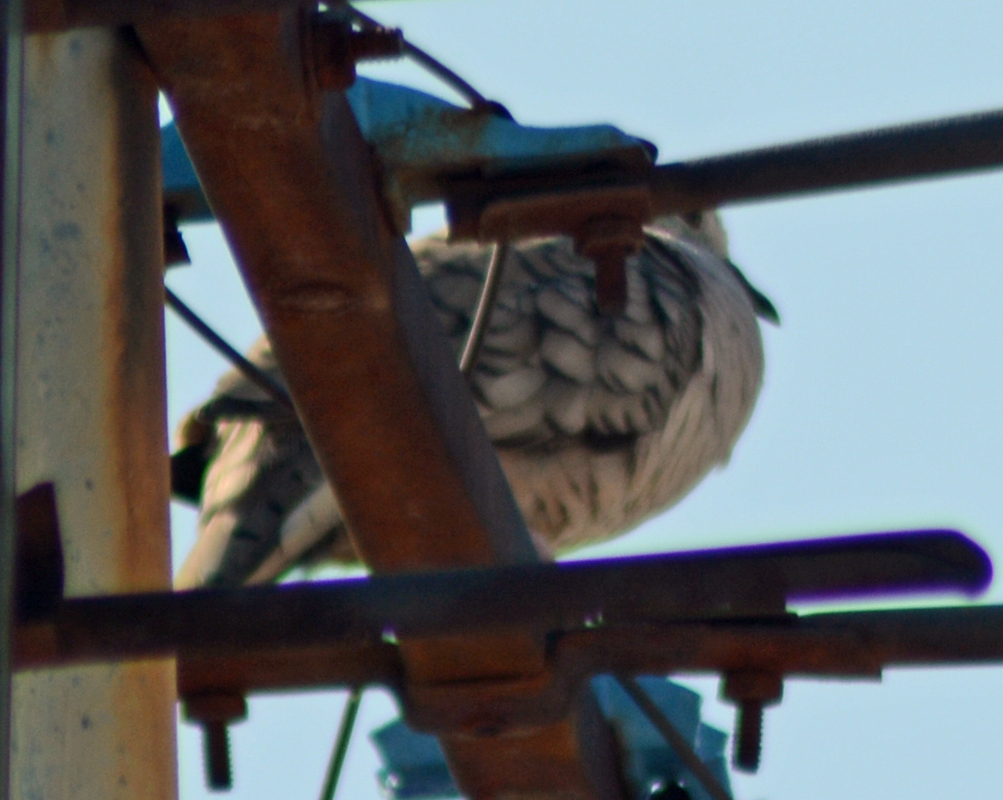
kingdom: Animalia
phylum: Chordata
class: Aves
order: Columbiformes
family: Columbidae
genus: Columbina
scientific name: Columbina inca
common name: Inca dove
